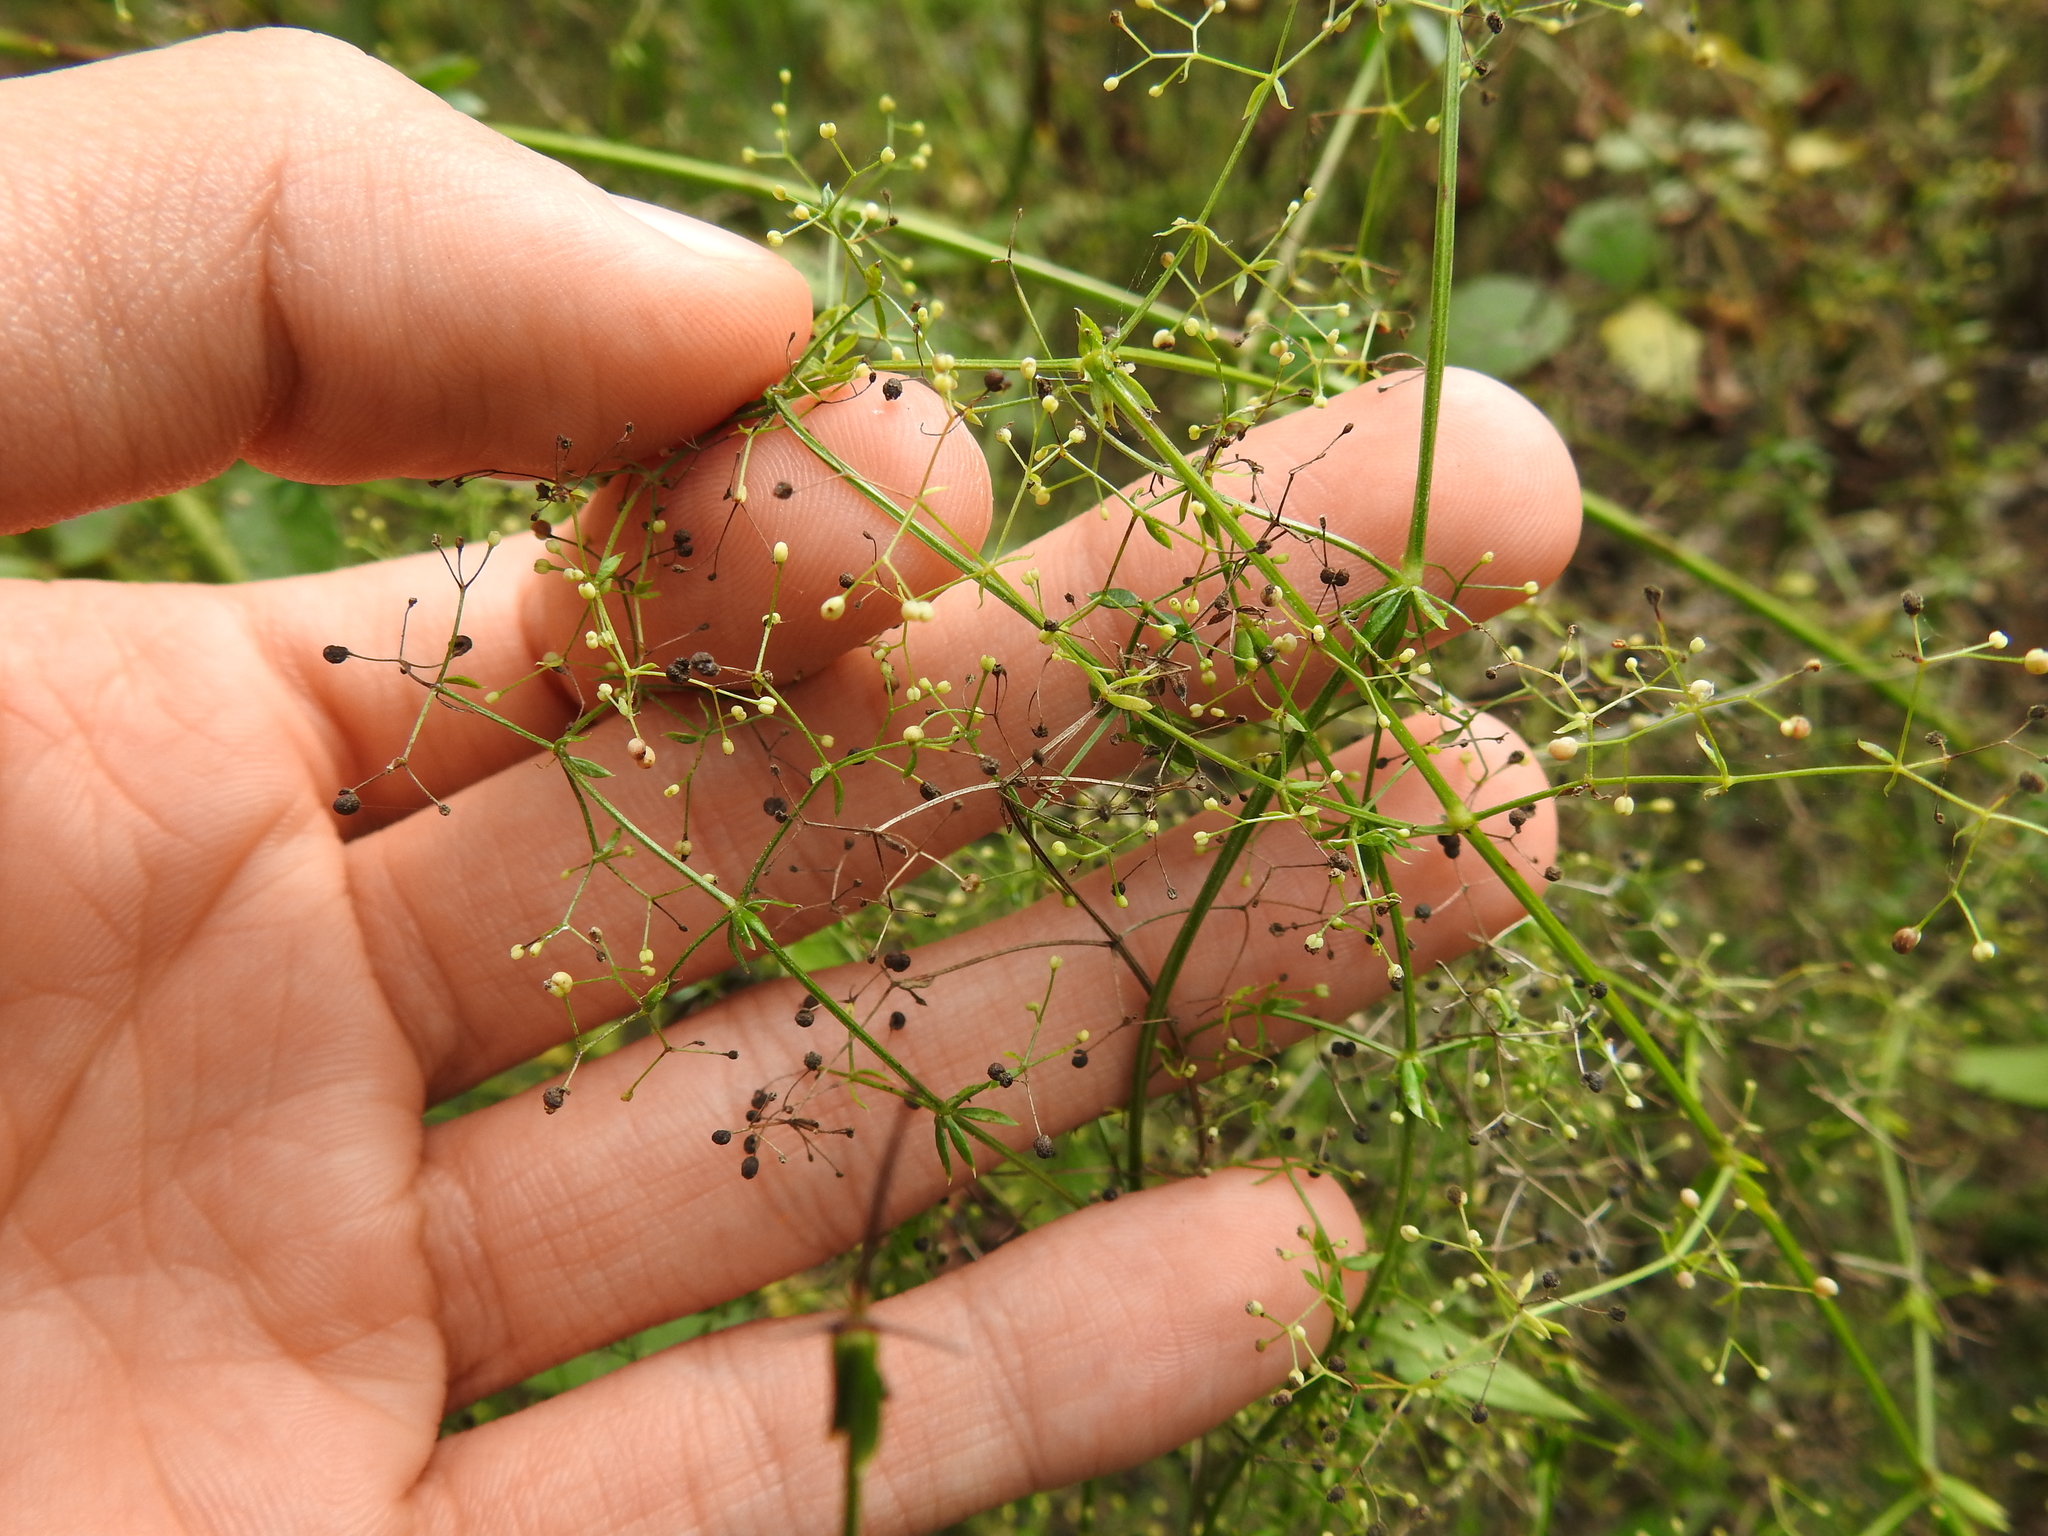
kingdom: Plantae
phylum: Tracheophyta
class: Magnoliopsida
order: Gentianales
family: Rubiaceae
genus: Galium
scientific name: Galium mollugo
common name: Hedge bedstraw
